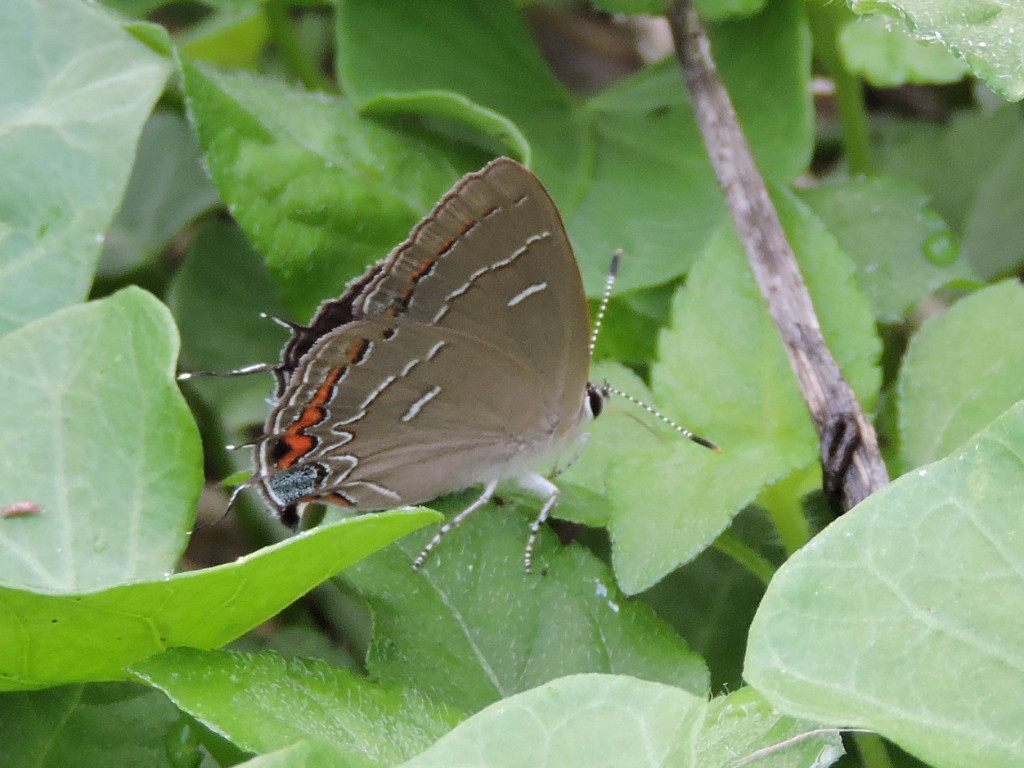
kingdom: Animalia
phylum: Arthropoda
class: Insecta
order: Lepidoptera
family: Lycaenidae
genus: Phaeostrymon
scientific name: Phaeostrymon alcestis
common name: Soapberry hairstreak
